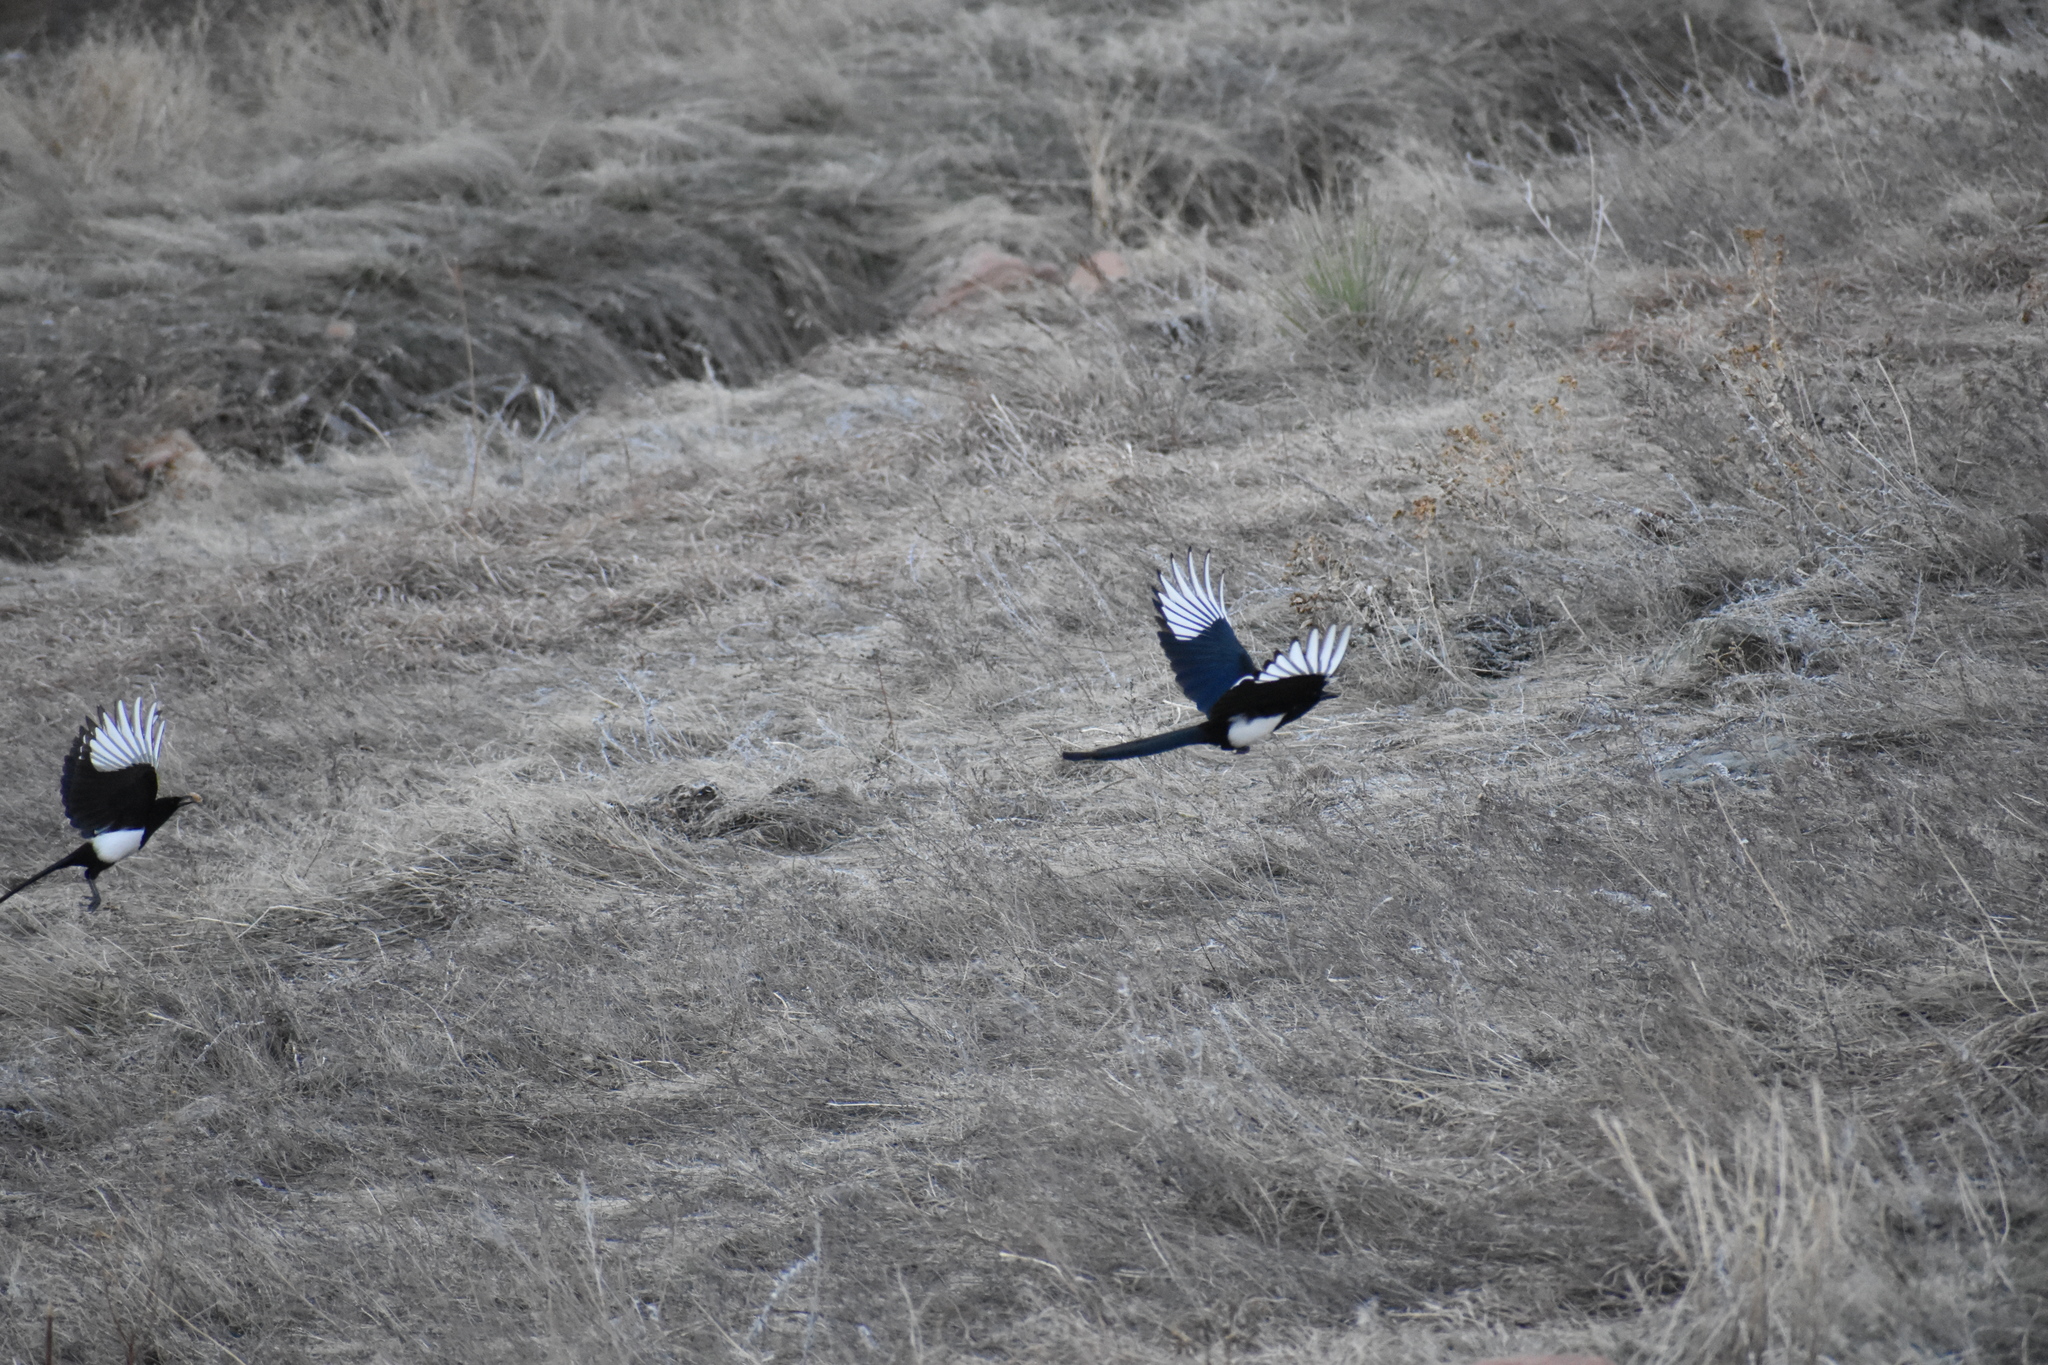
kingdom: Animalia
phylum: Chordata
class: Aves
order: Passeriformes
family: Corvidae
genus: Pica
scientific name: Pica hudsonia
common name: Black-billed magpie
